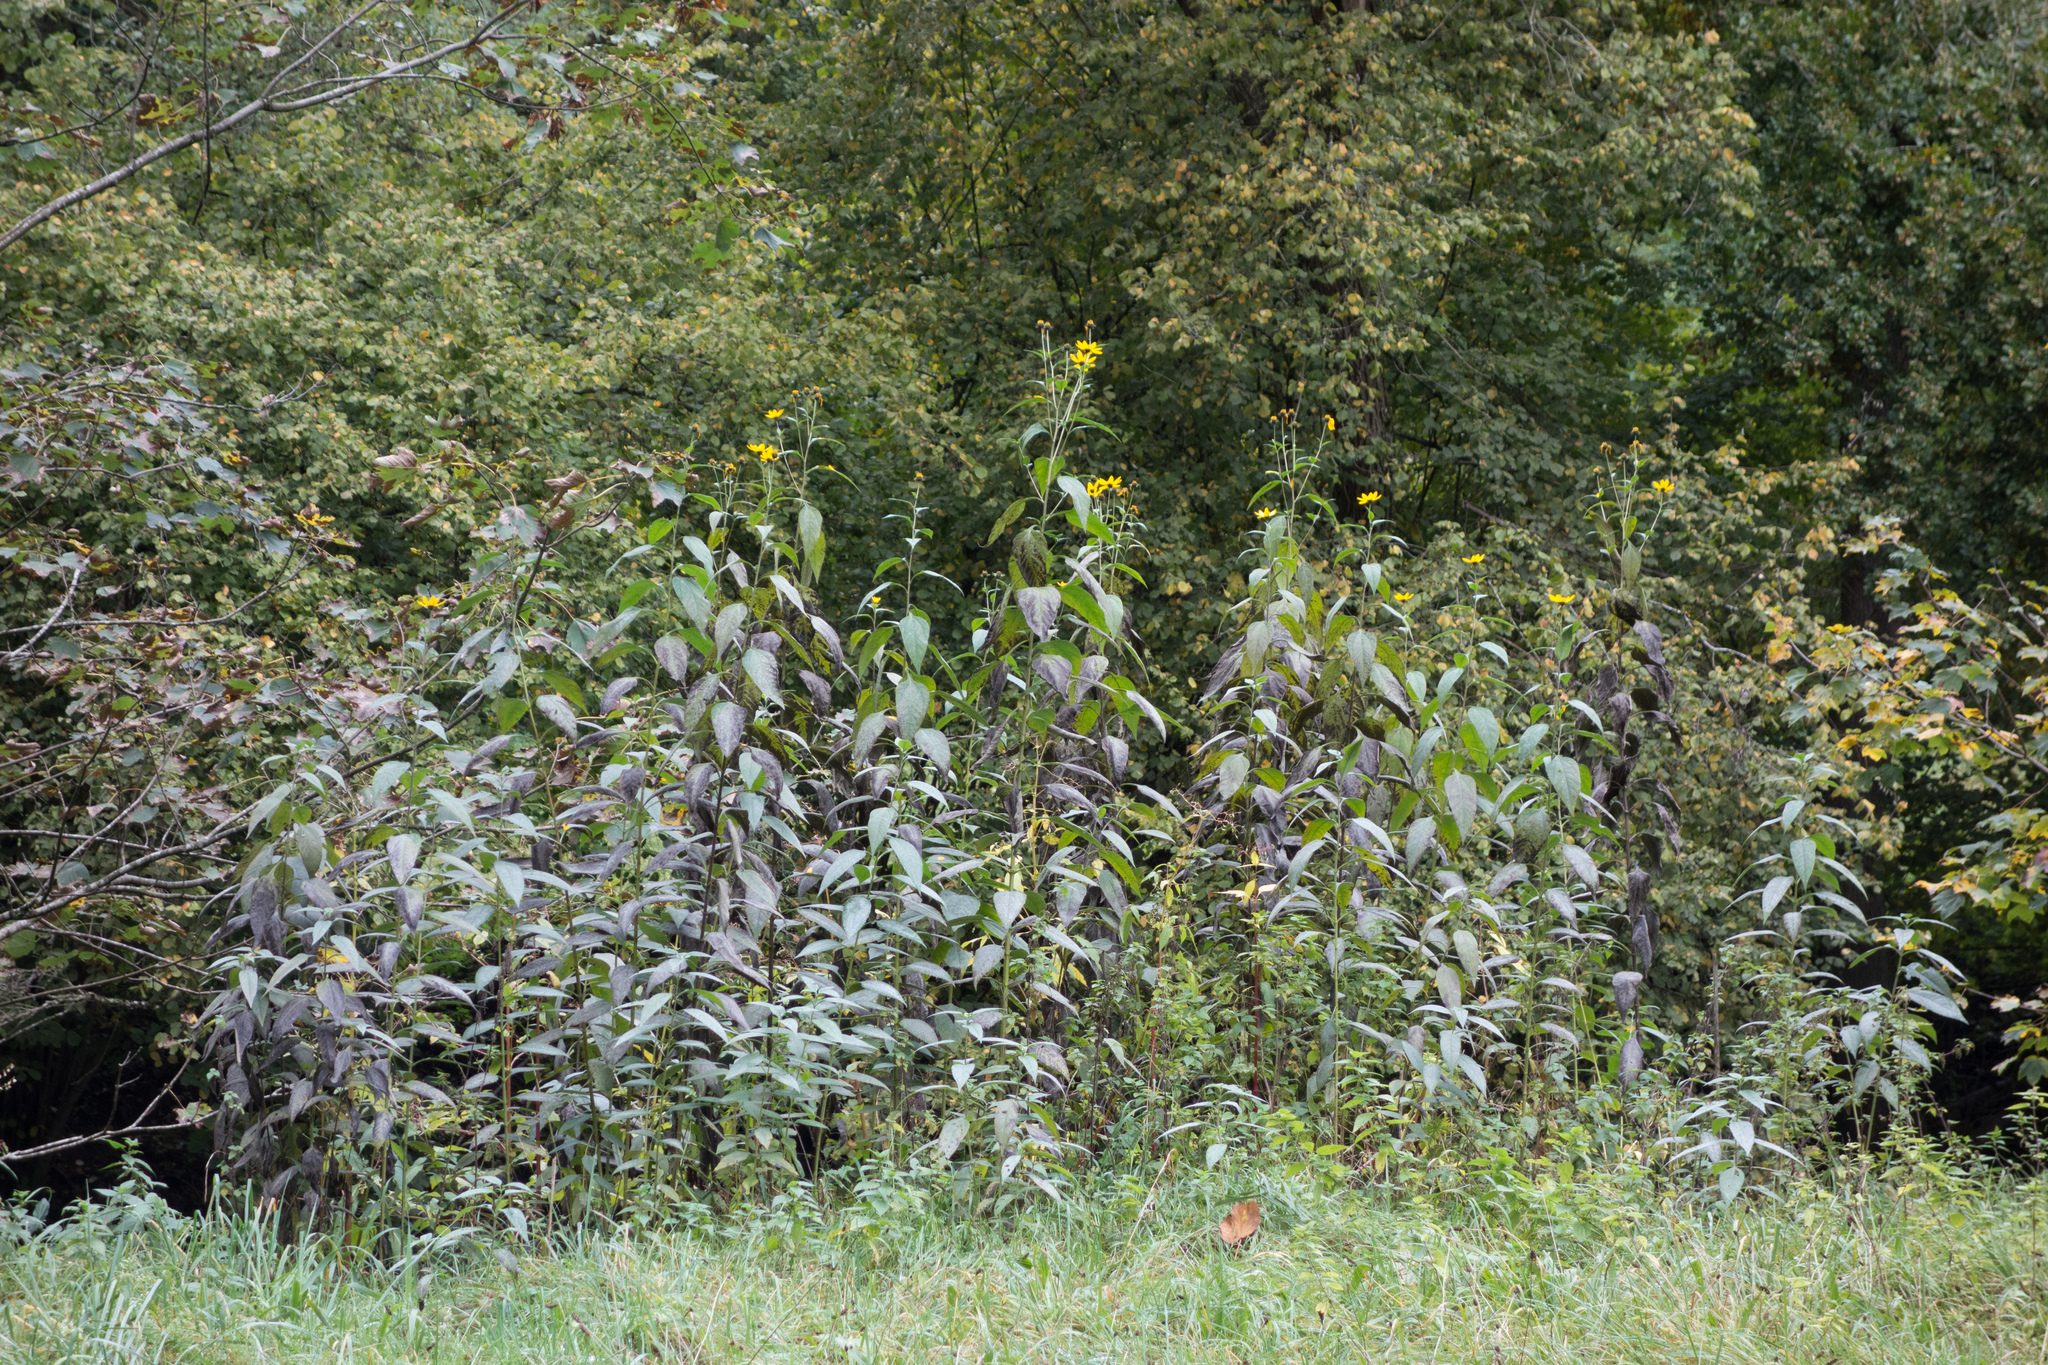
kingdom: Plantae
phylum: Tracheophyta
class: Magnoliopsida
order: Asterales
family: Asteraceae
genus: Helianthus
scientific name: Helianthus tuberosus
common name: Jerusalem artichoke
